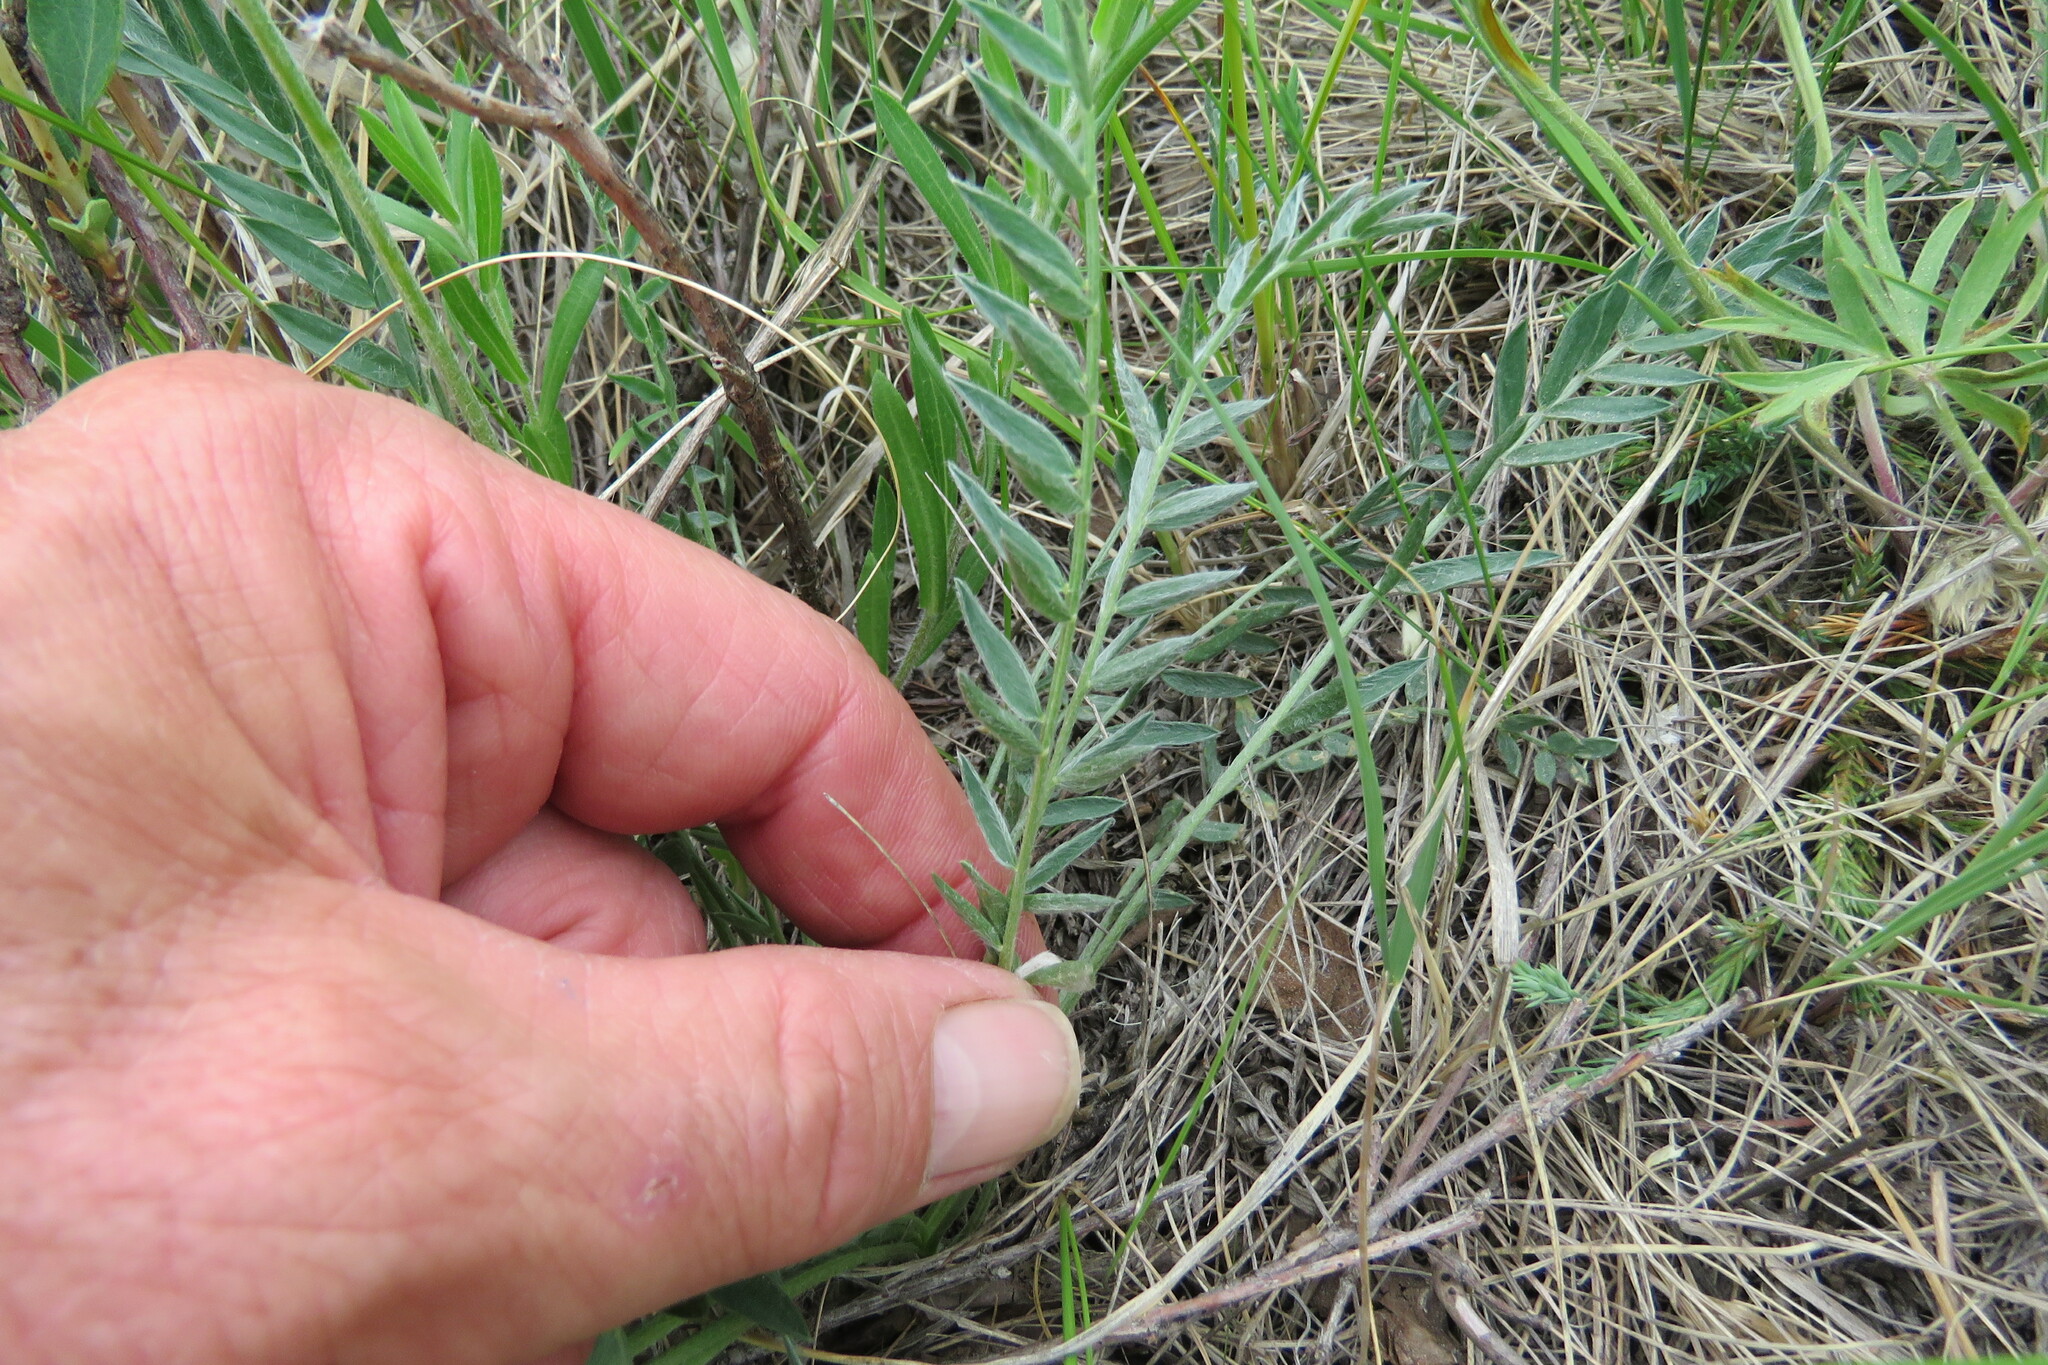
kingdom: Plantae
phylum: Tracheophyta
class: Magnoliopsida
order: Fabales
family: Fabaceae
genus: Oxytropis
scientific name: Oxytropis campestris
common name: Field locoweed
